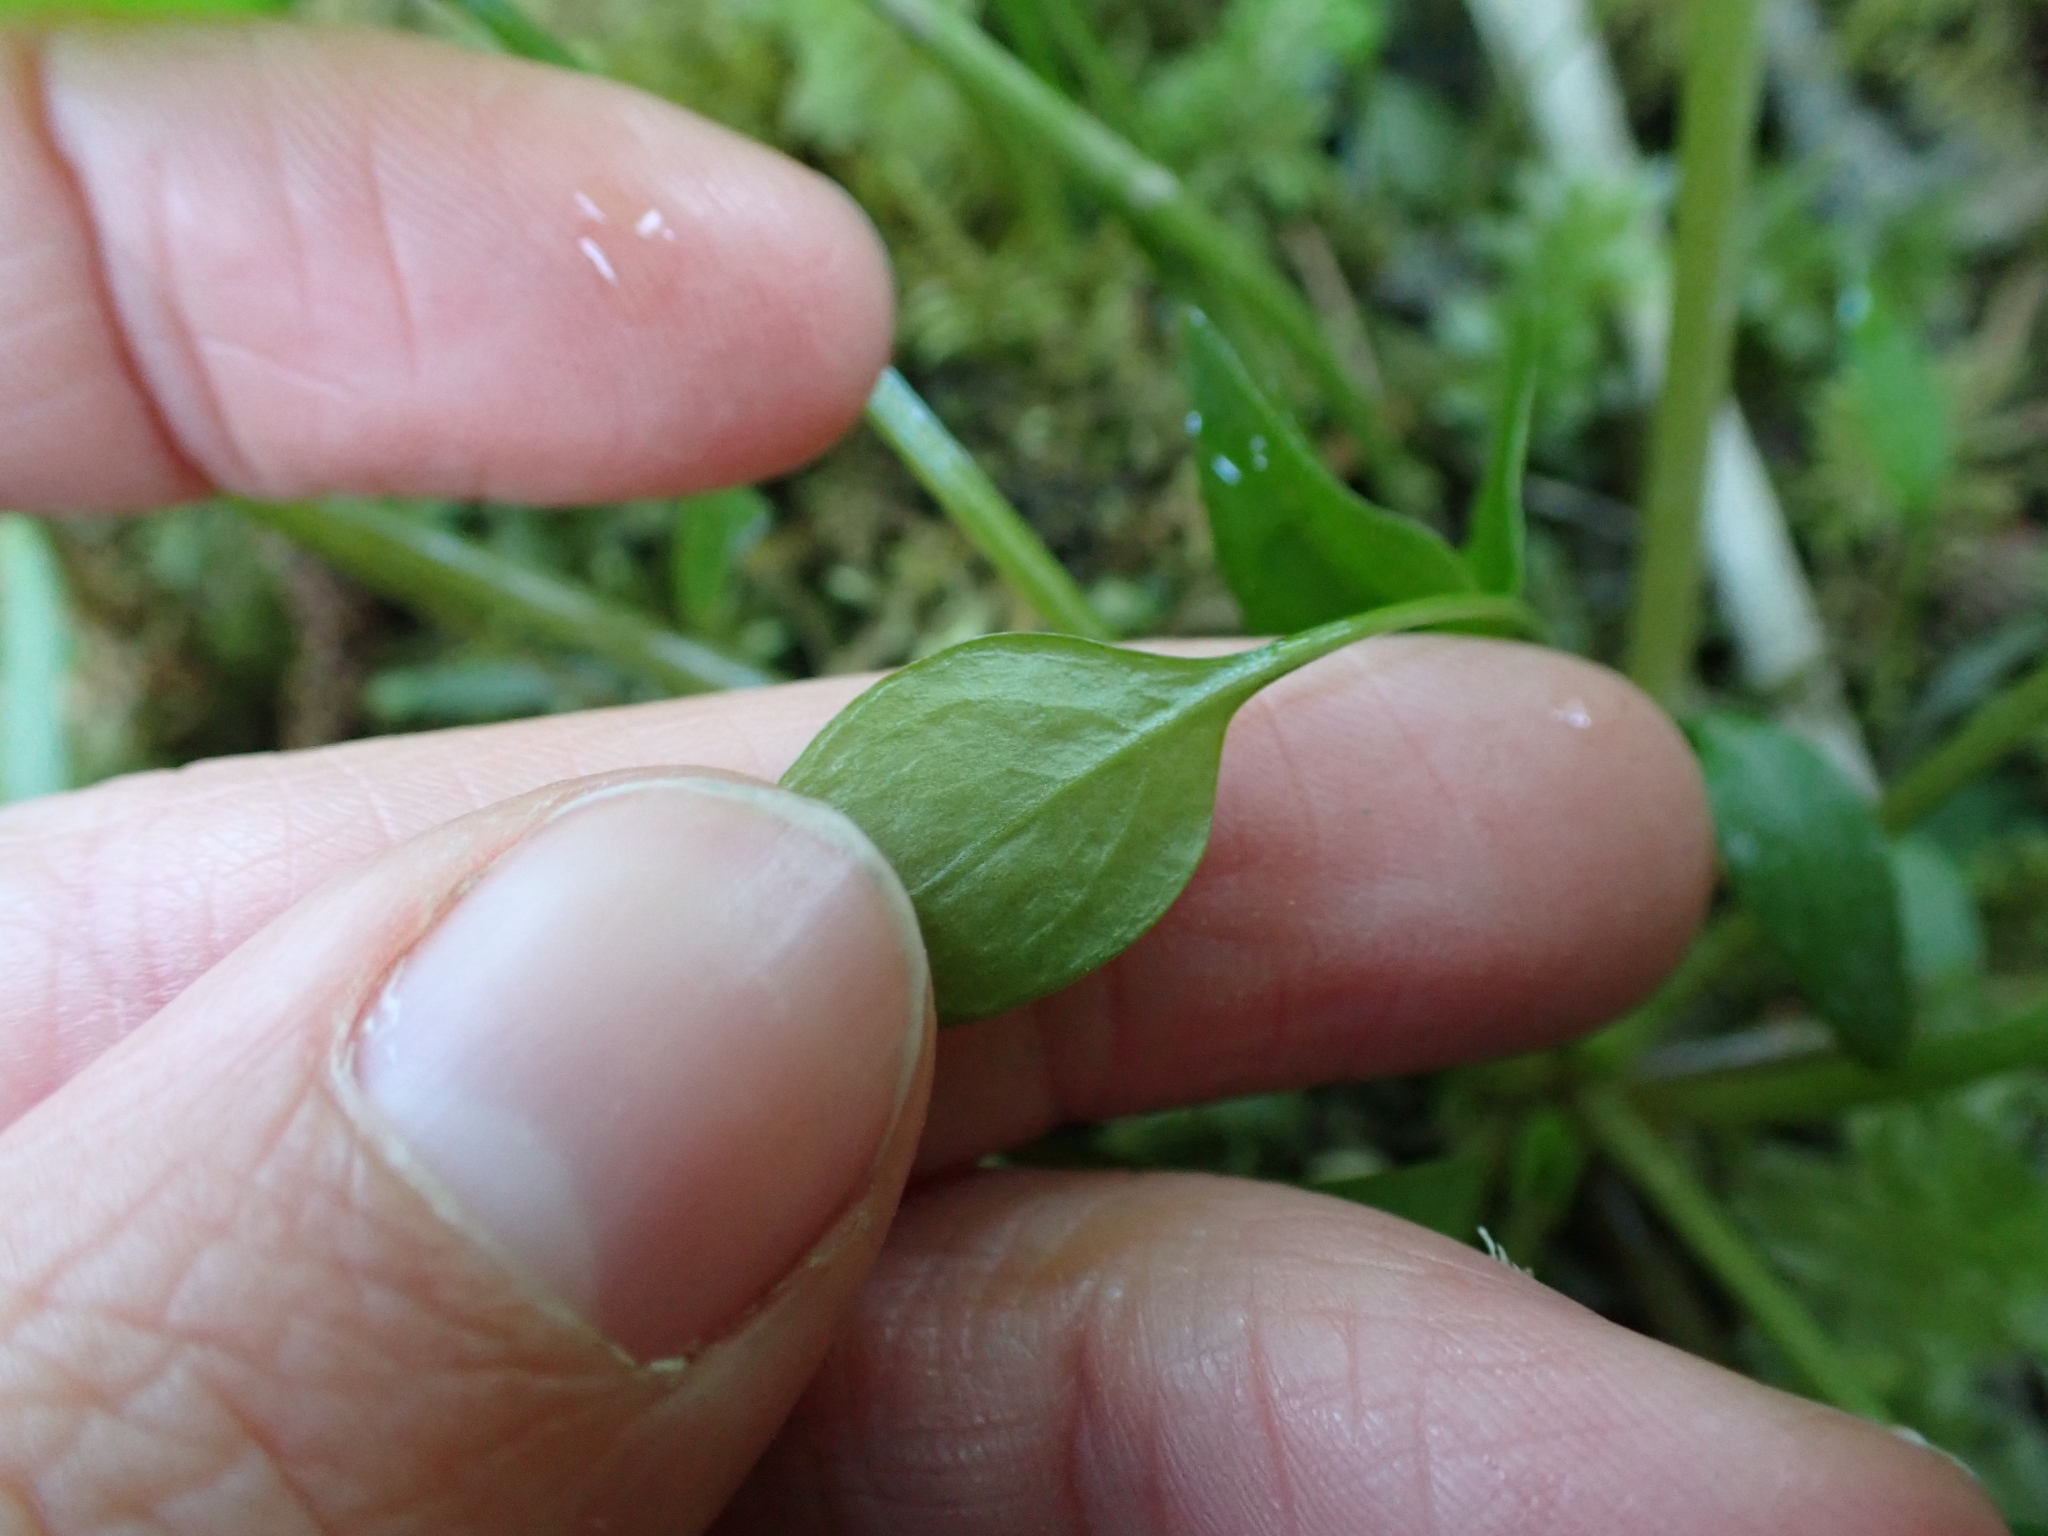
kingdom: Plantae
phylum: Tracheophyta
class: Magnoliopsida
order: Caryophyllales
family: Montiaceae
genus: Claytonia
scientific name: Claytonia sibirica
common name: Pink purslane
